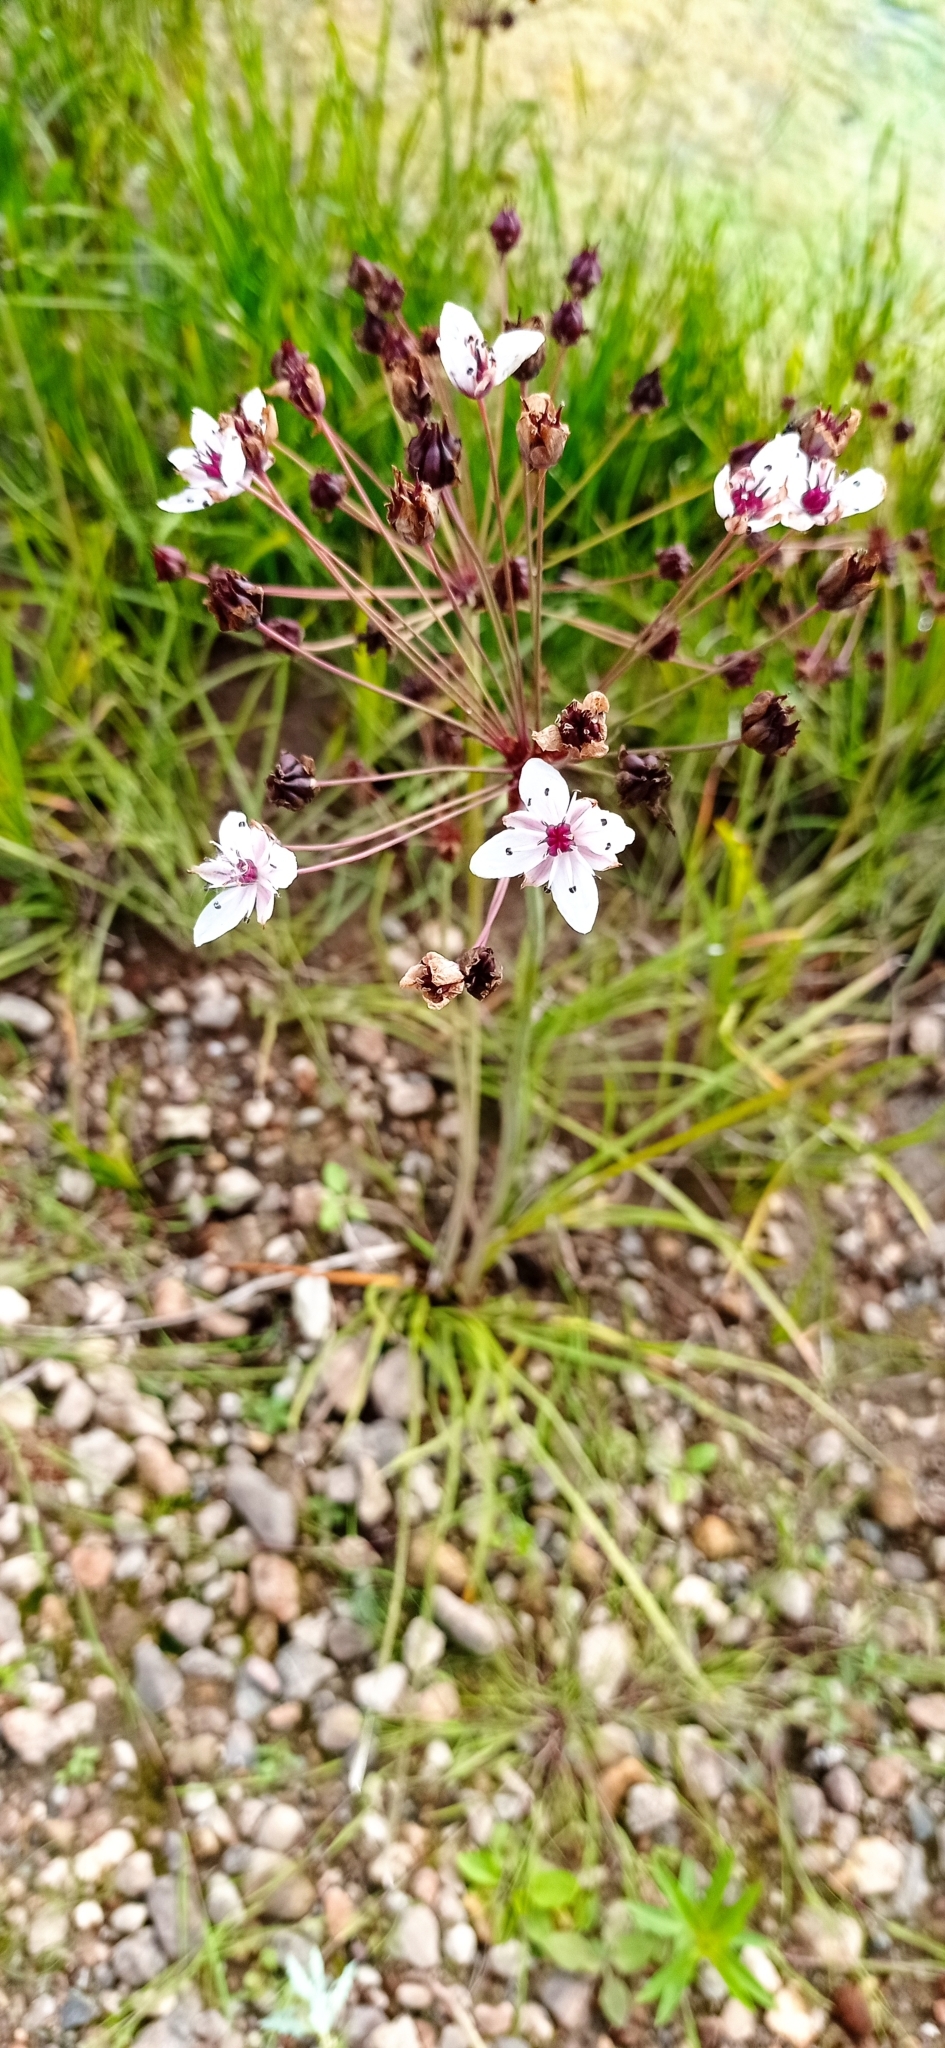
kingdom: Plantae
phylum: Tracheophyta
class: Liliopsida
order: Alismatales
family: Butomaceae
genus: Butomus
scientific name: Butomus umbellatus
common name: Flowering-rush
